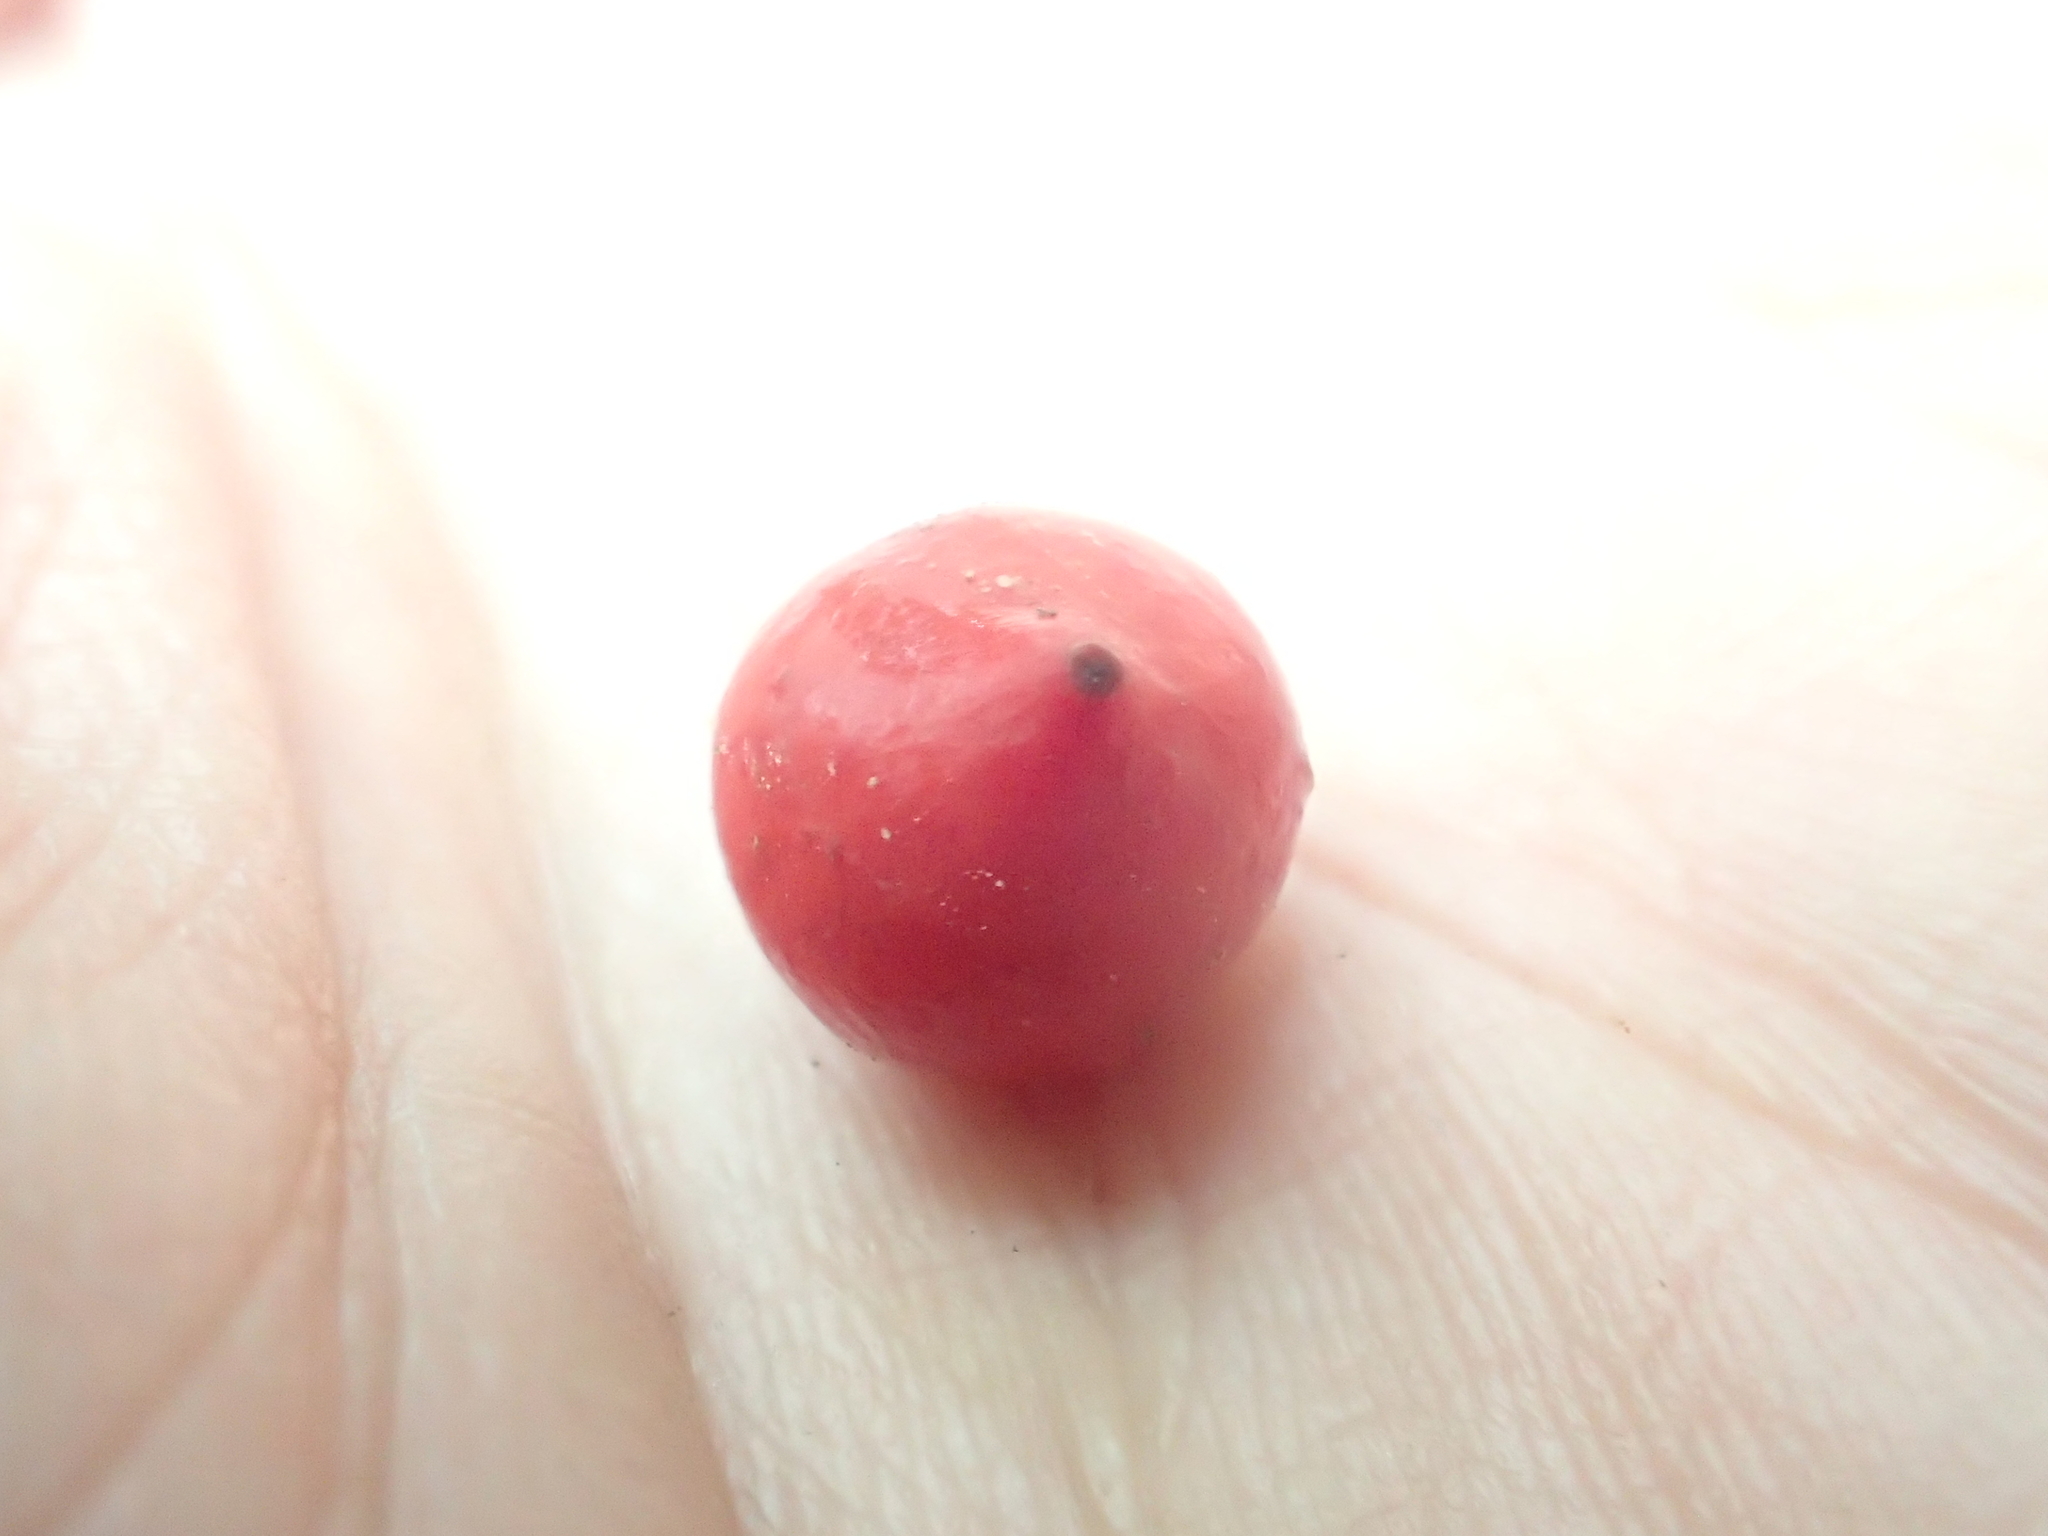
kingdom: Plantae
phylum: Tracheophyta
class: Liliopsida
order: Liliales
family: Ripogonaceae
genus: Ripogonum
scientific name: Ripogonum scandens
